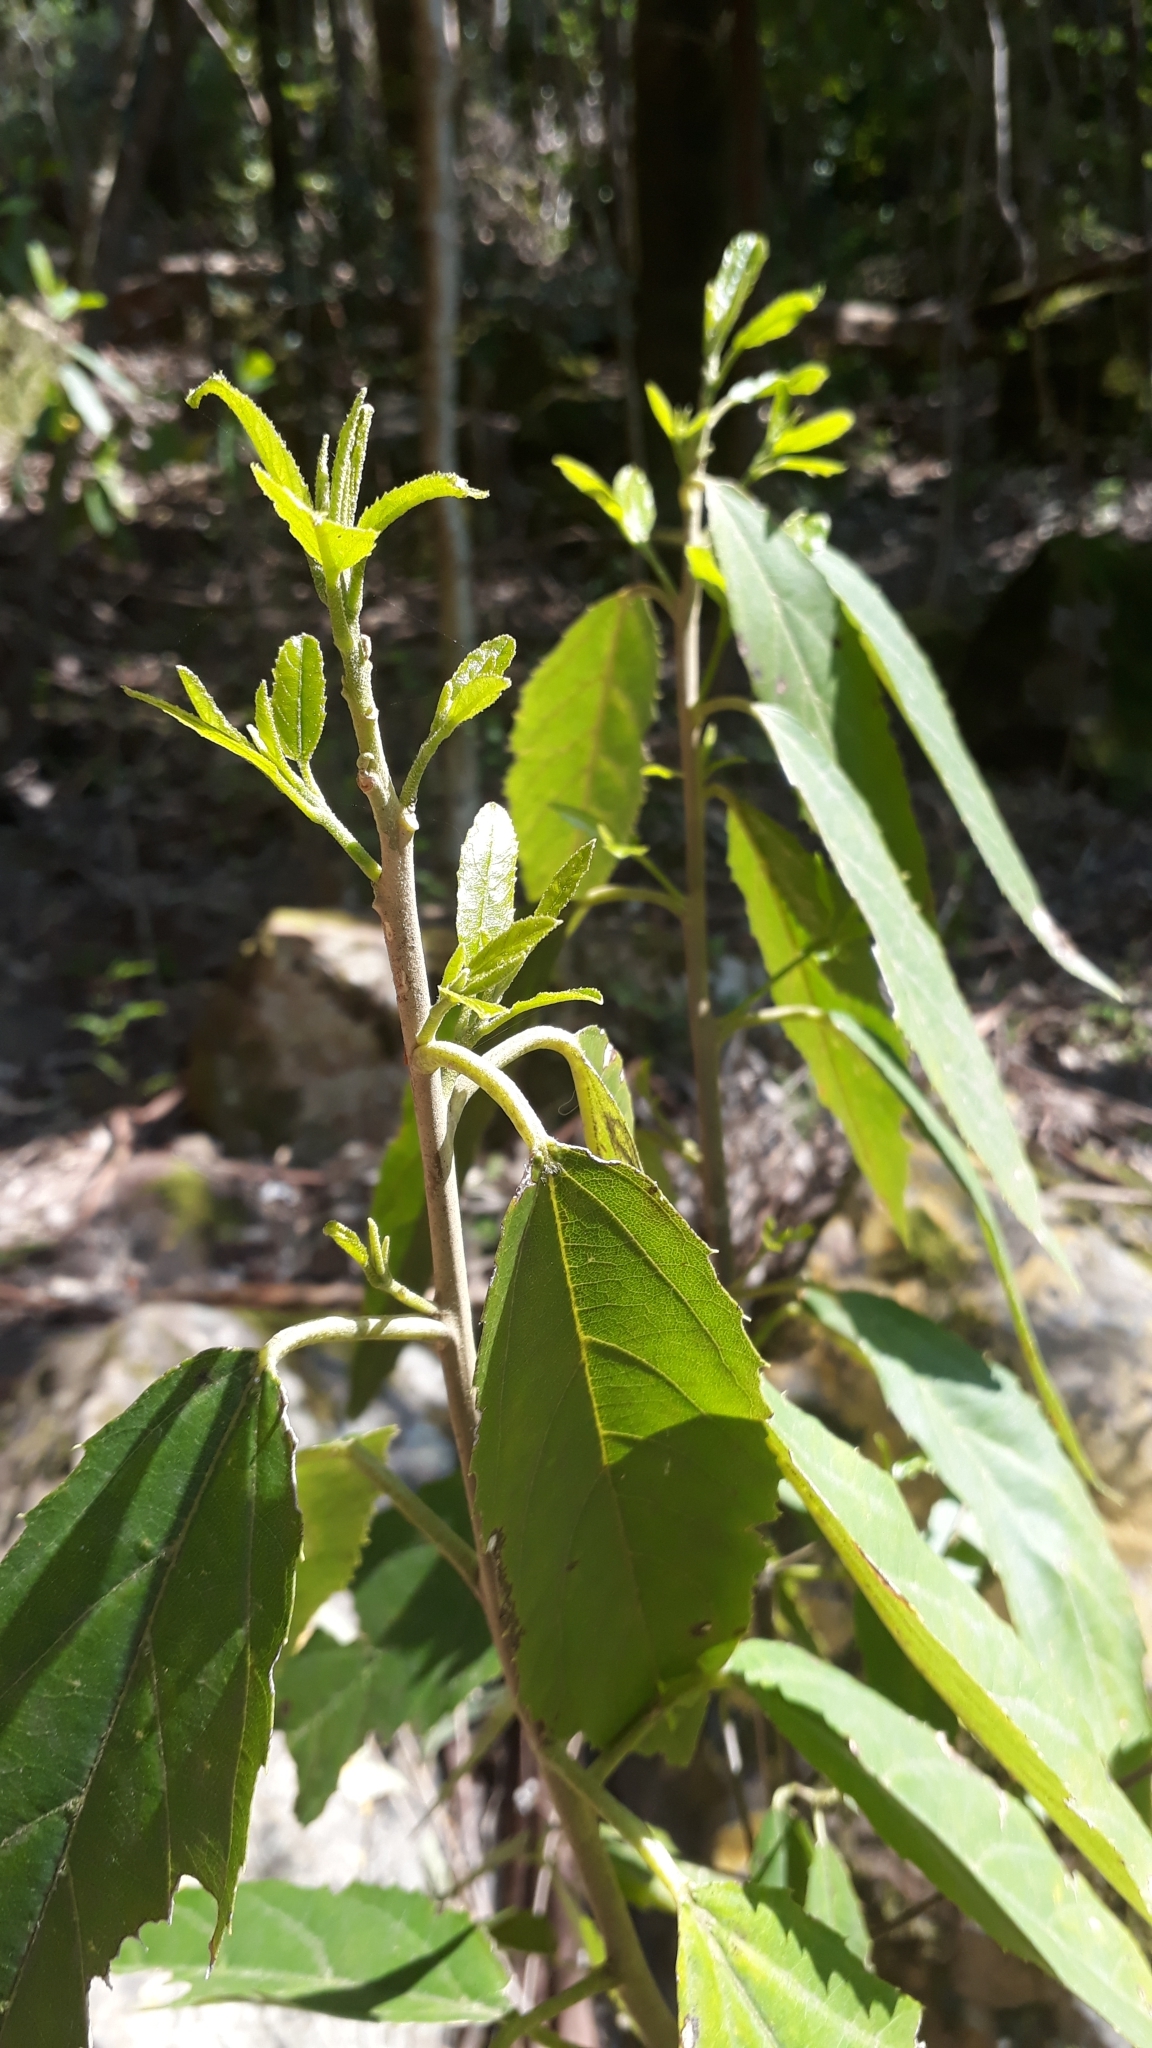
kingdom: Plantae
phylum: Tracheophyta
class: Magnoliopsida
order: Malpighiales
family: Achariaceae
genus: Kiggelaria
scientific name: Kiggelaria africana
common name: Wild peach
